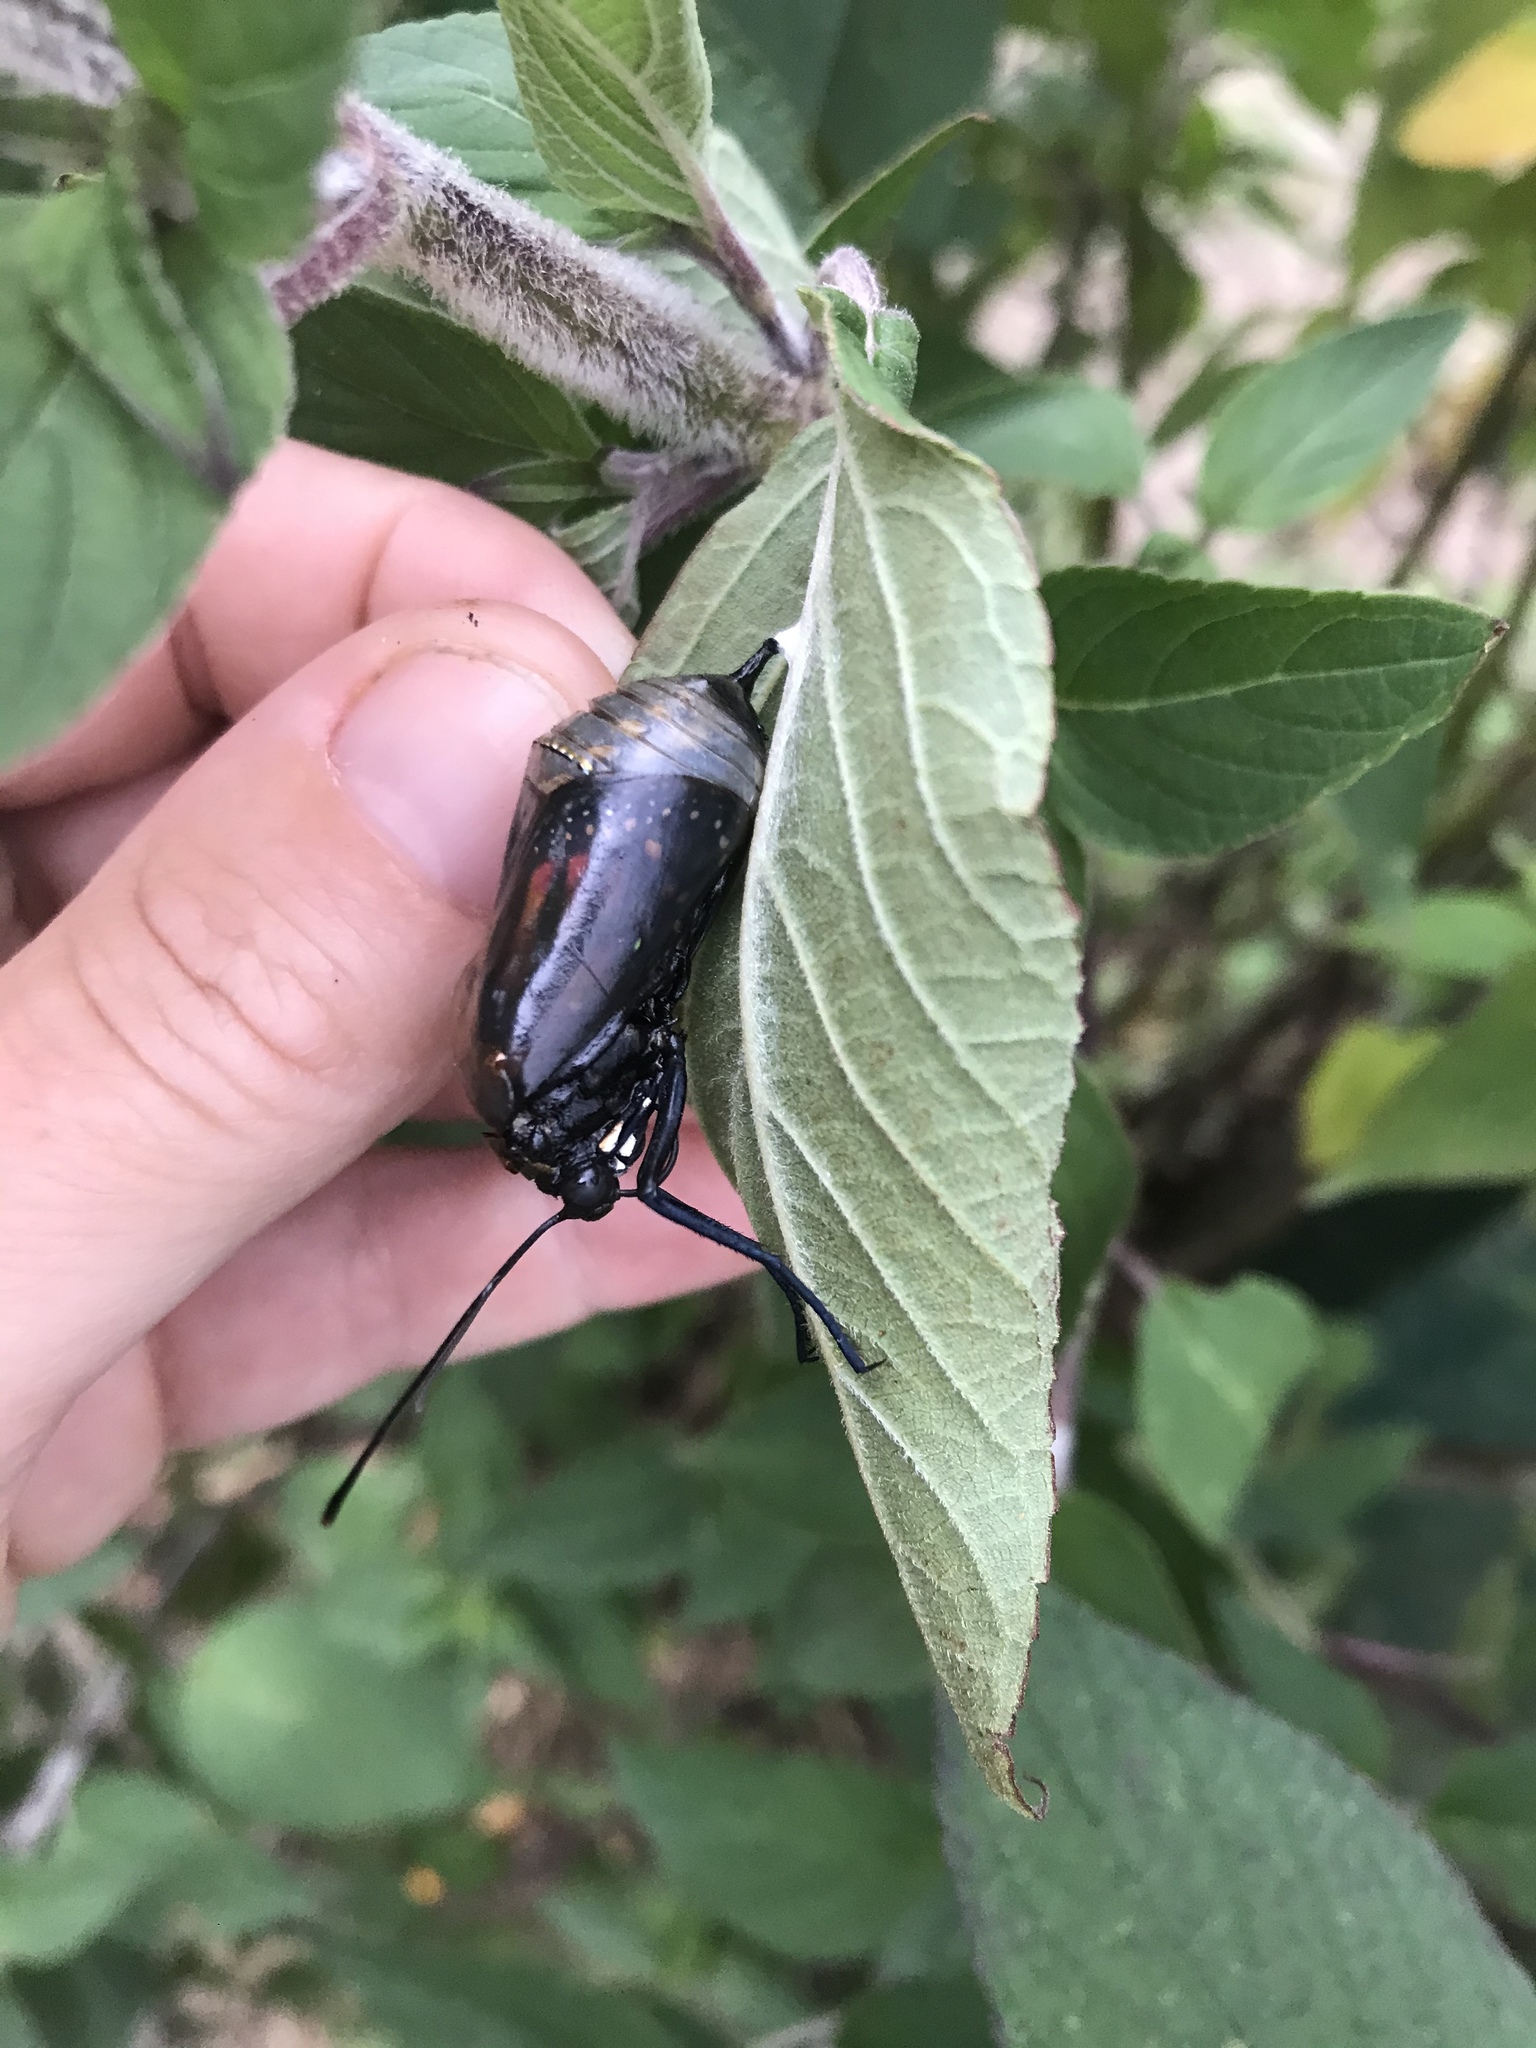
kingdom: Animalia
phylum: Arthropoda
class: Insecta
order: Lepidoptera
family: Nymphalidae
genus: Danaus
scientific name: Danaus plexippus
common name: Monarch
